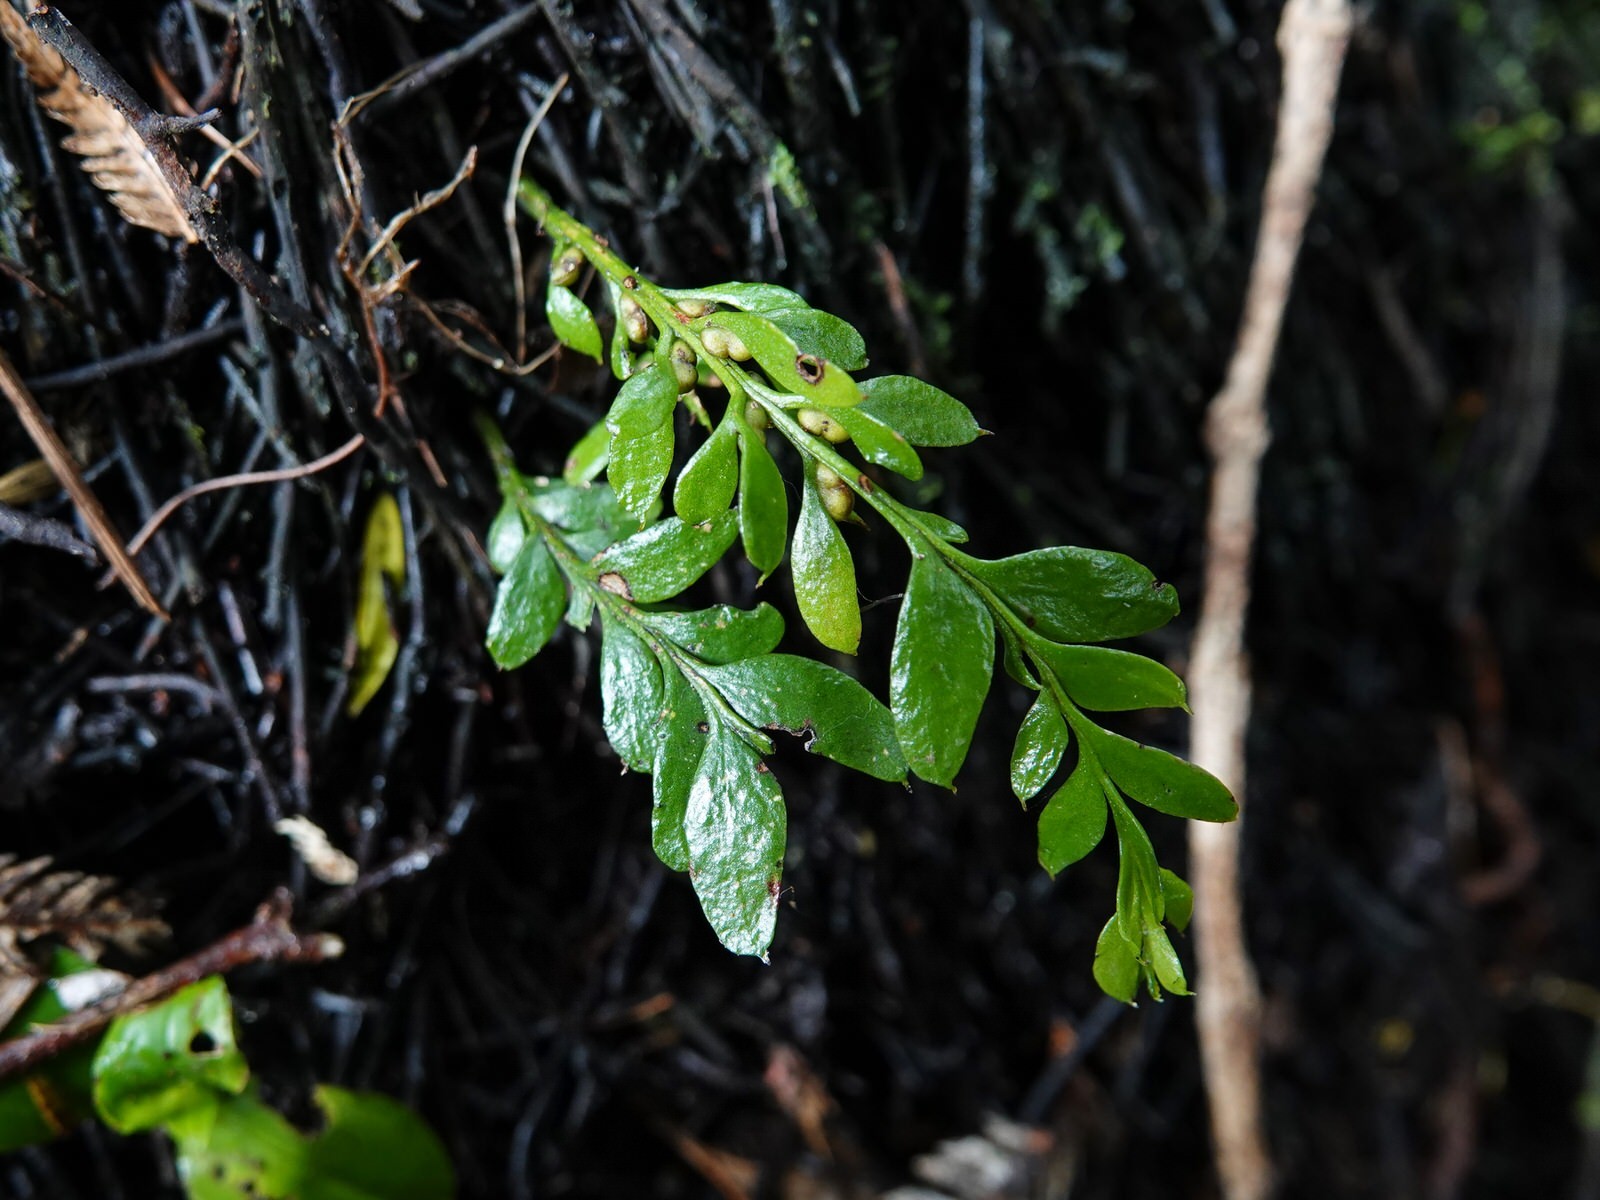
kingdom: Plantae
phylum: Tracheophyta
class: Polypodiopsida
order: Psilotales
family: Psilotaceae
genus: Tmesipteris
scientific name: Tmesipteris lanceolata
